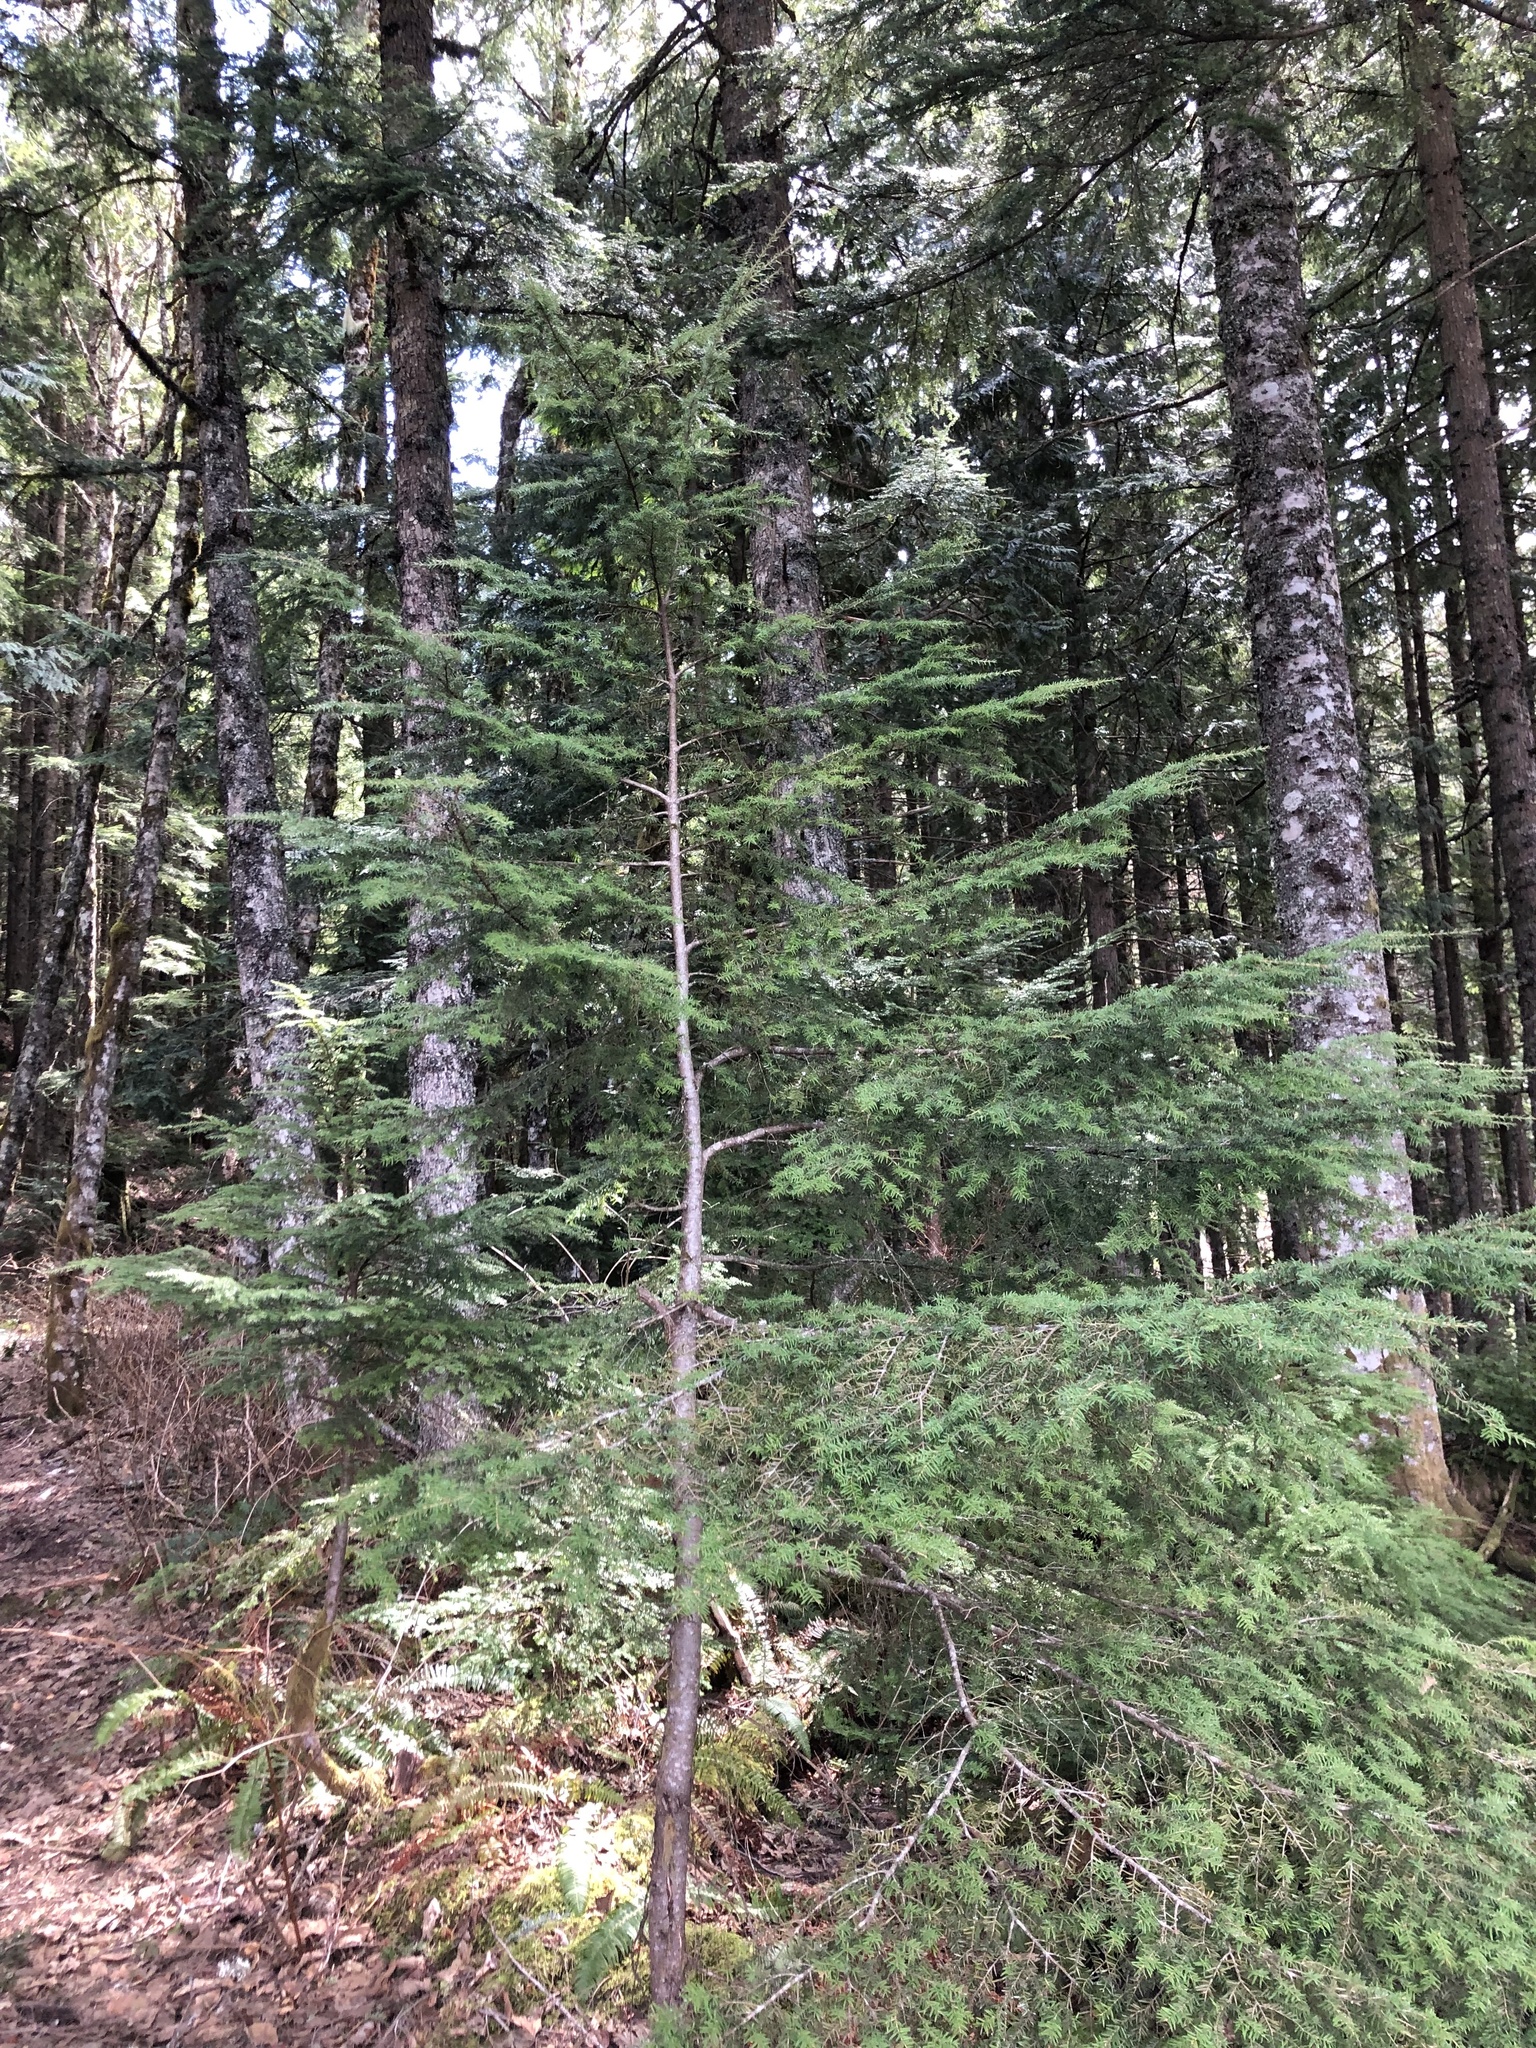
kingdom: Plantae
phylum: Tracheophyta
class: Pinopsida
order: Pinales
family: Pinaceae
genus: Tsuga
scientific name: Tsuga heterophylla
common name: Western hemlock
